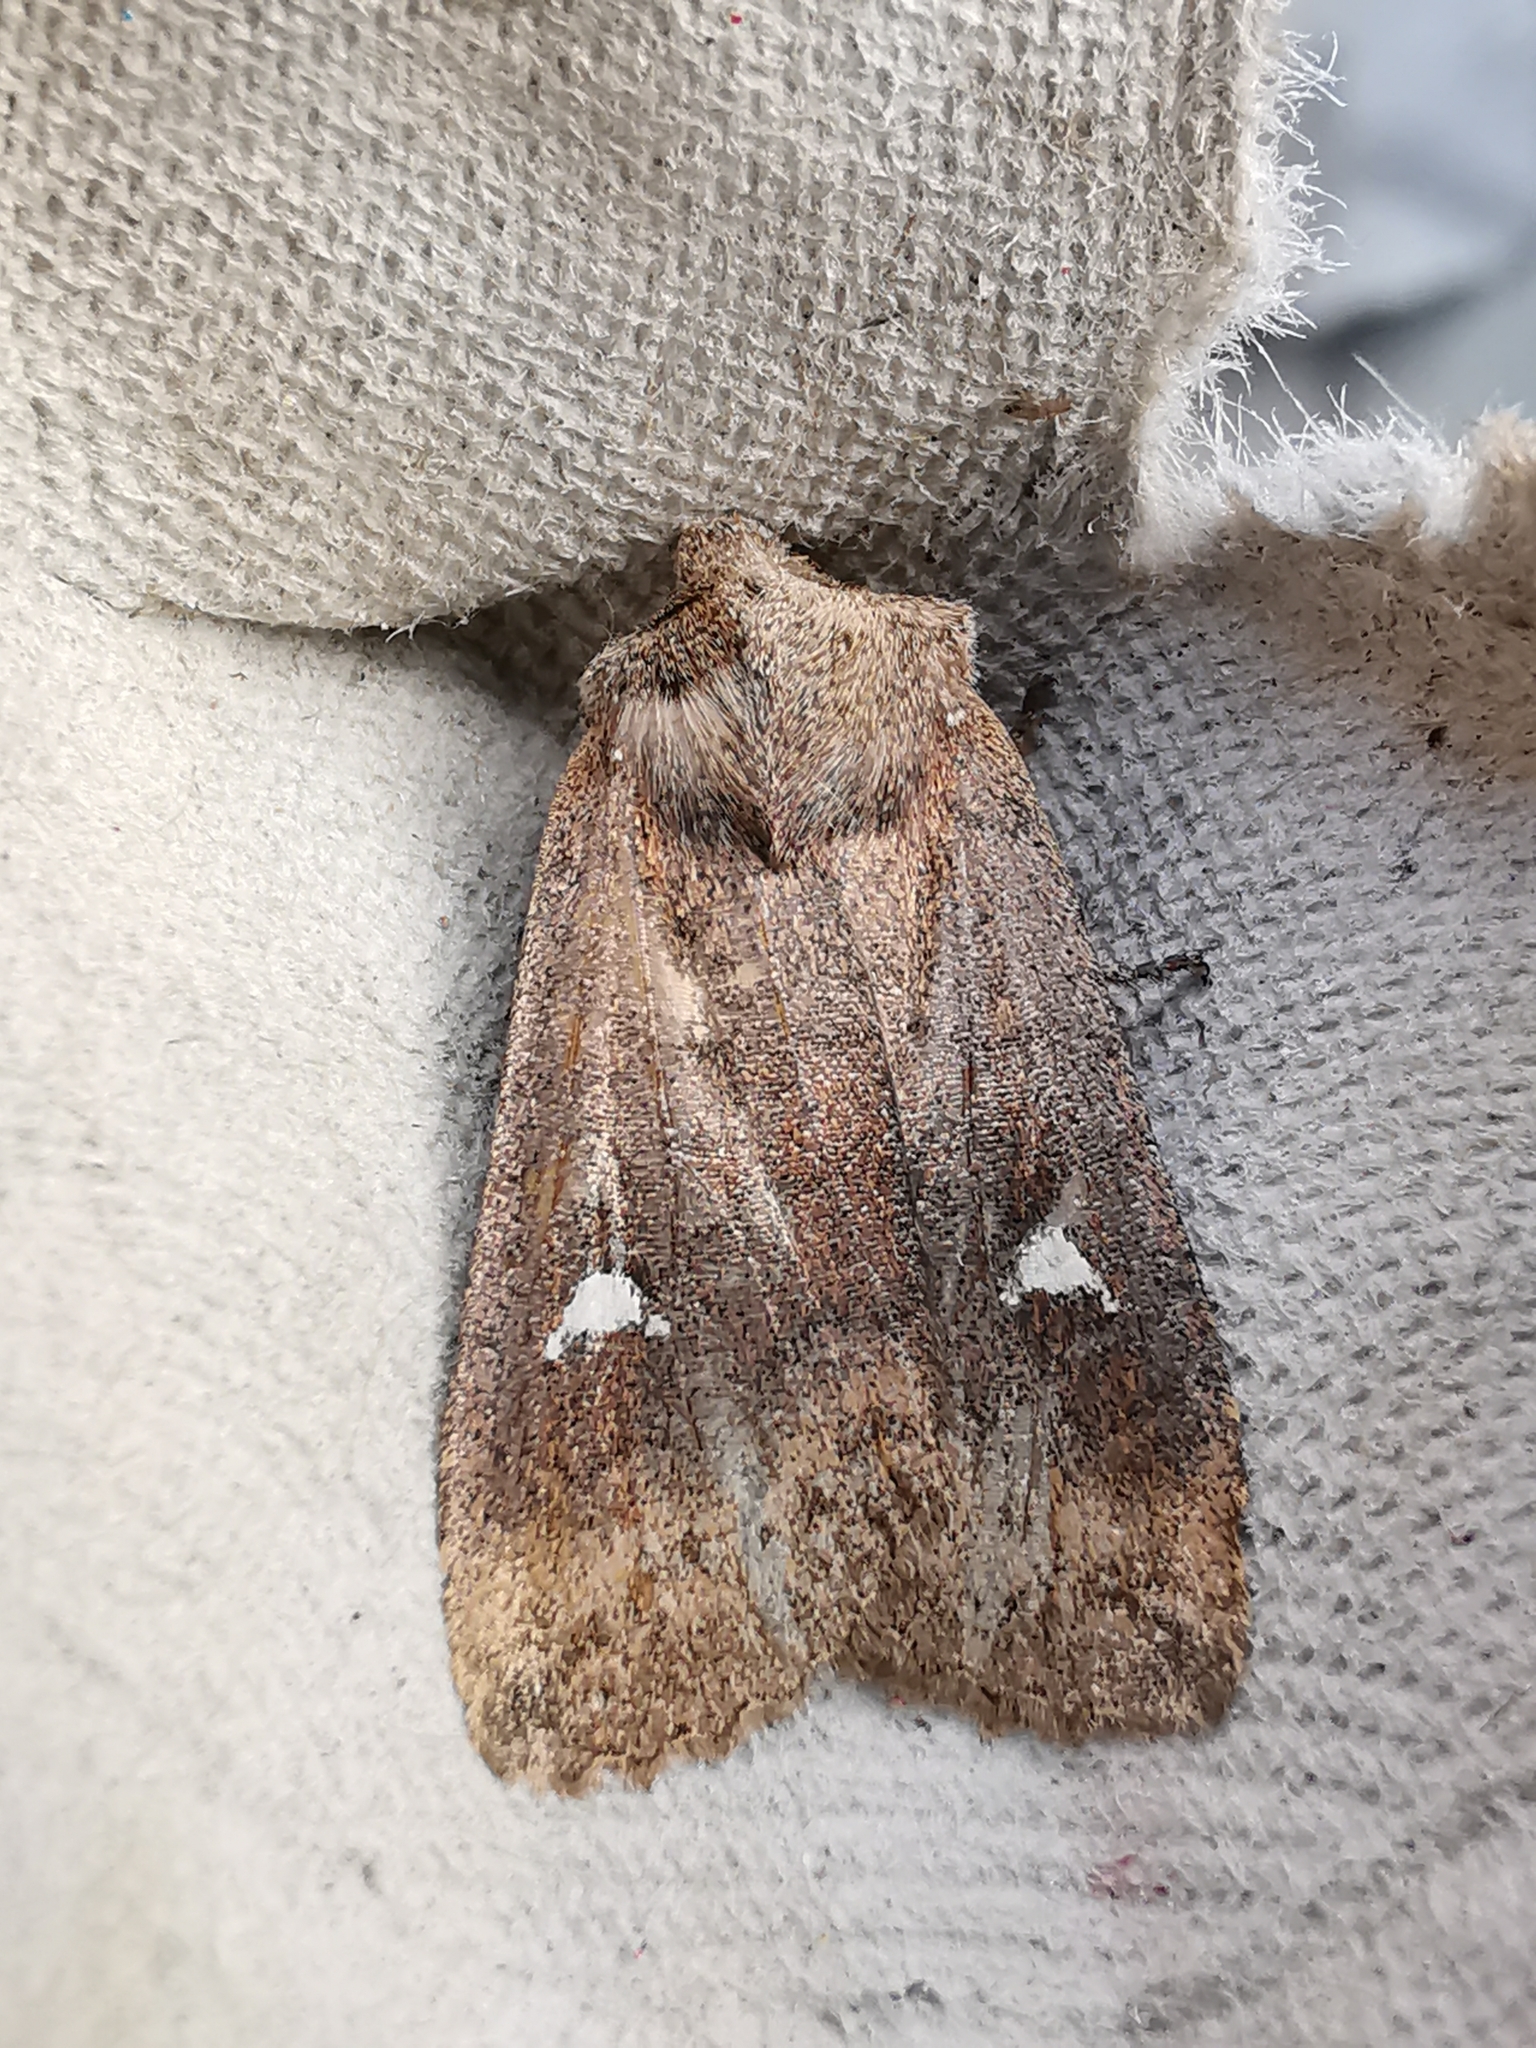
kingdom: Animalia
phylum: Arthropoda
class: Insecta
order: Lepidoptera
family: Noctuidae
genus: Eupsilia
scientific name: Eupsilia transversa
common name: Satellite
